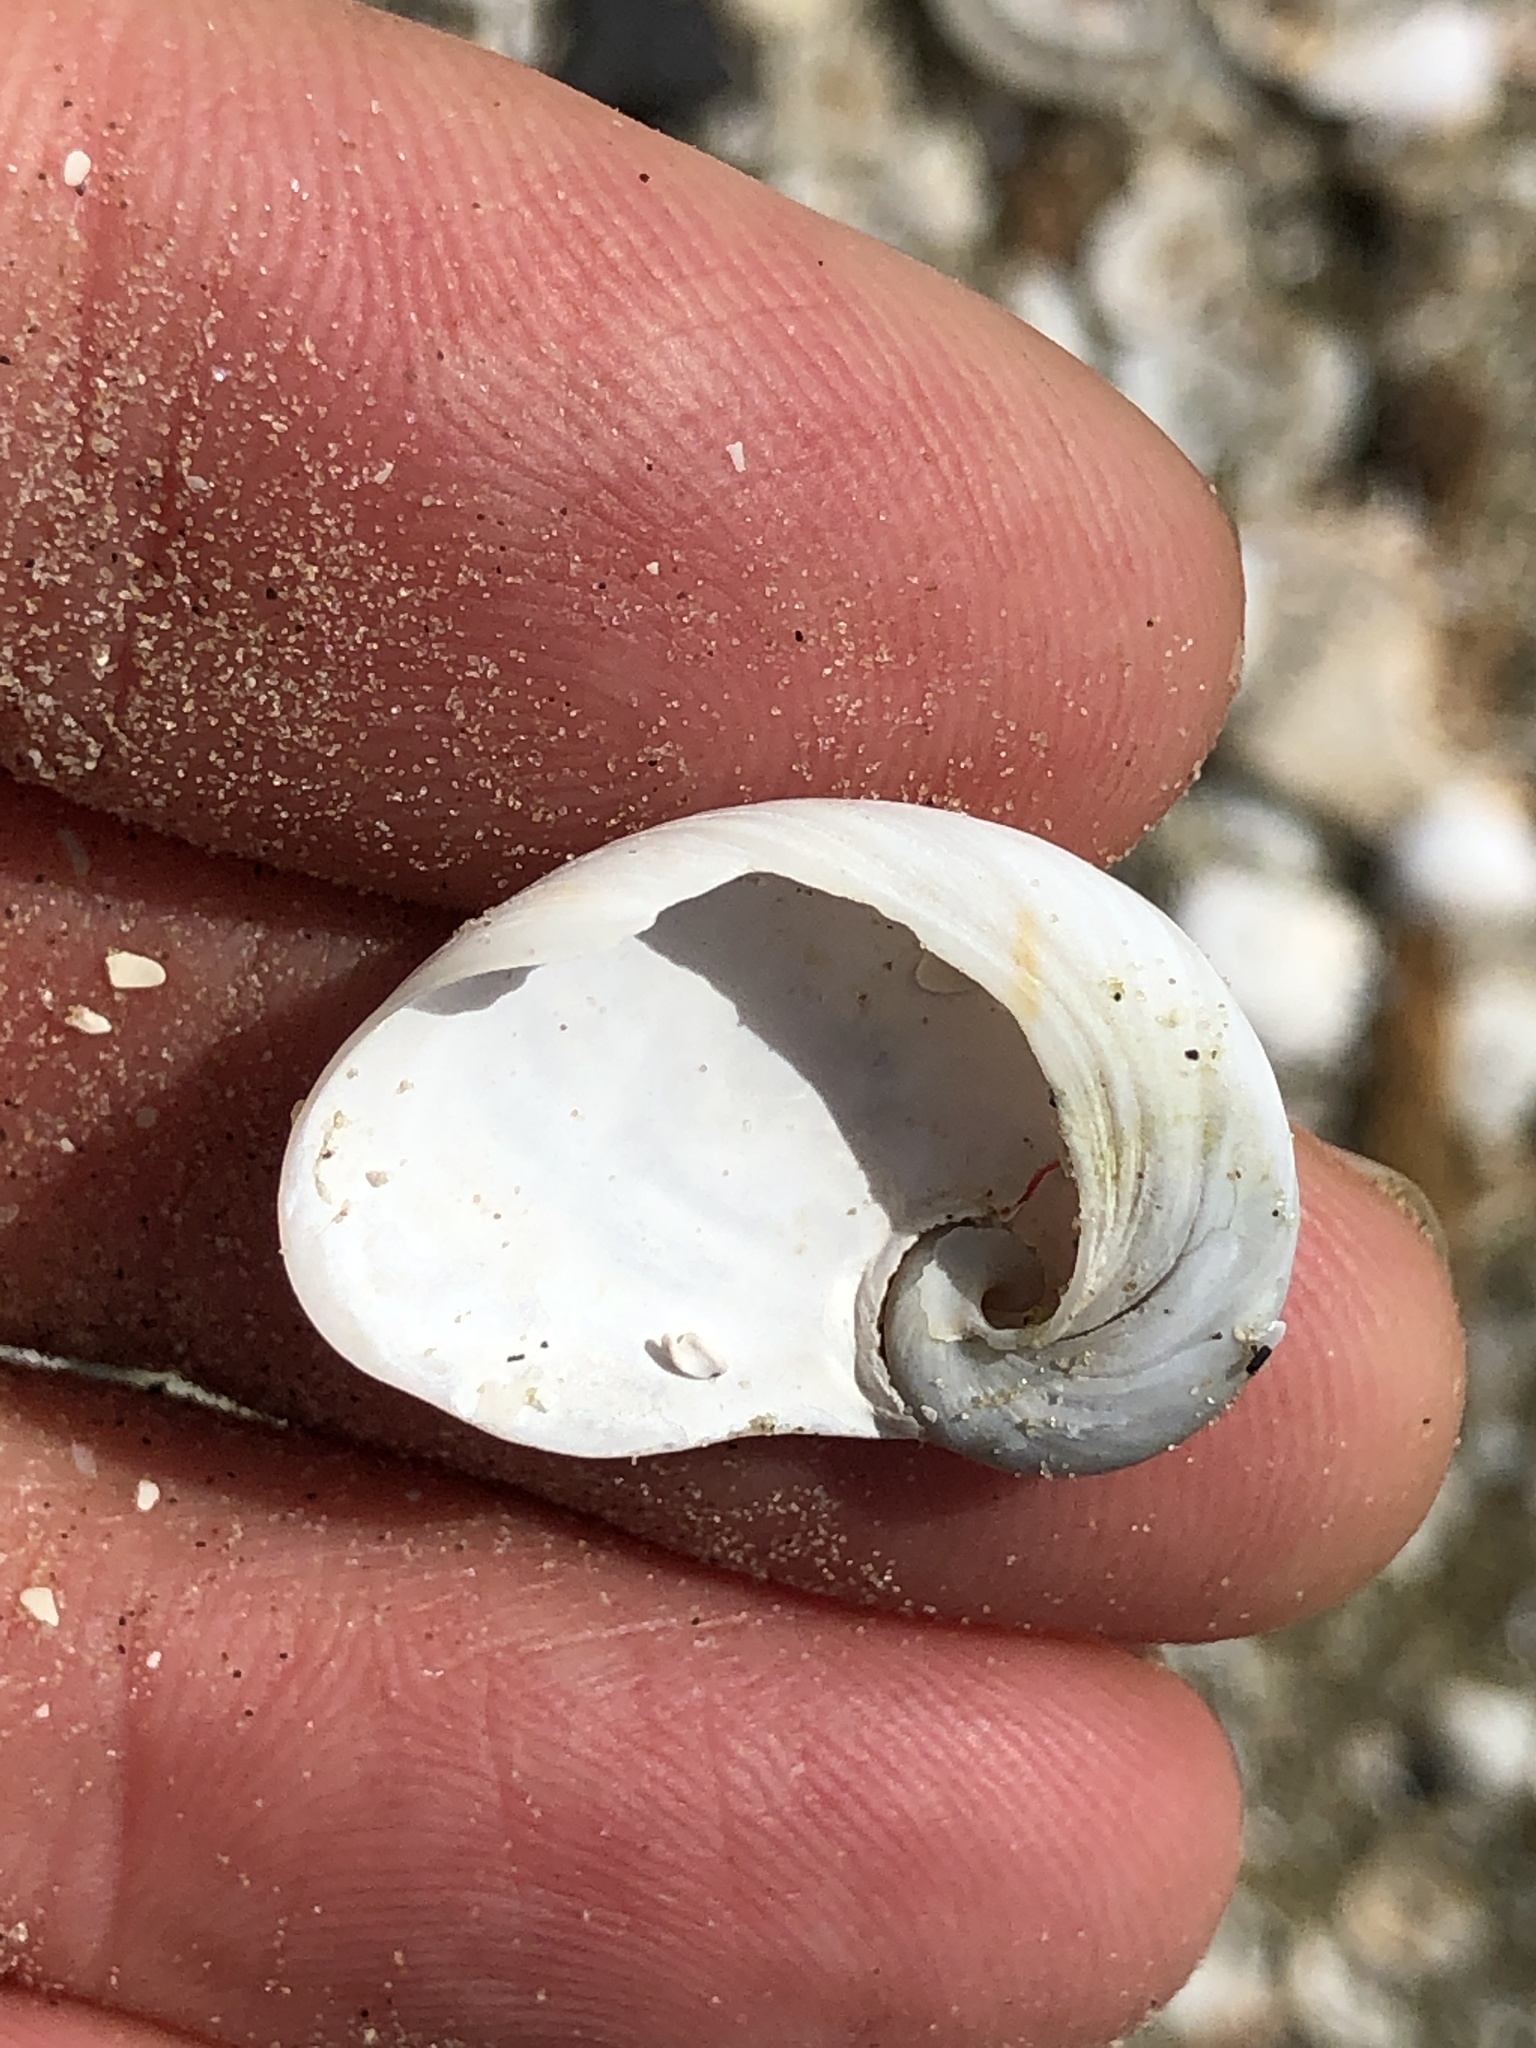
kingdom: Animalia
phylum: Mollusca
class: Gastropoda
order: Littorinimorpha
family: Naticidae
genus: Sinum
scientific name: Sinum perspectivum
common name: White baby ear
